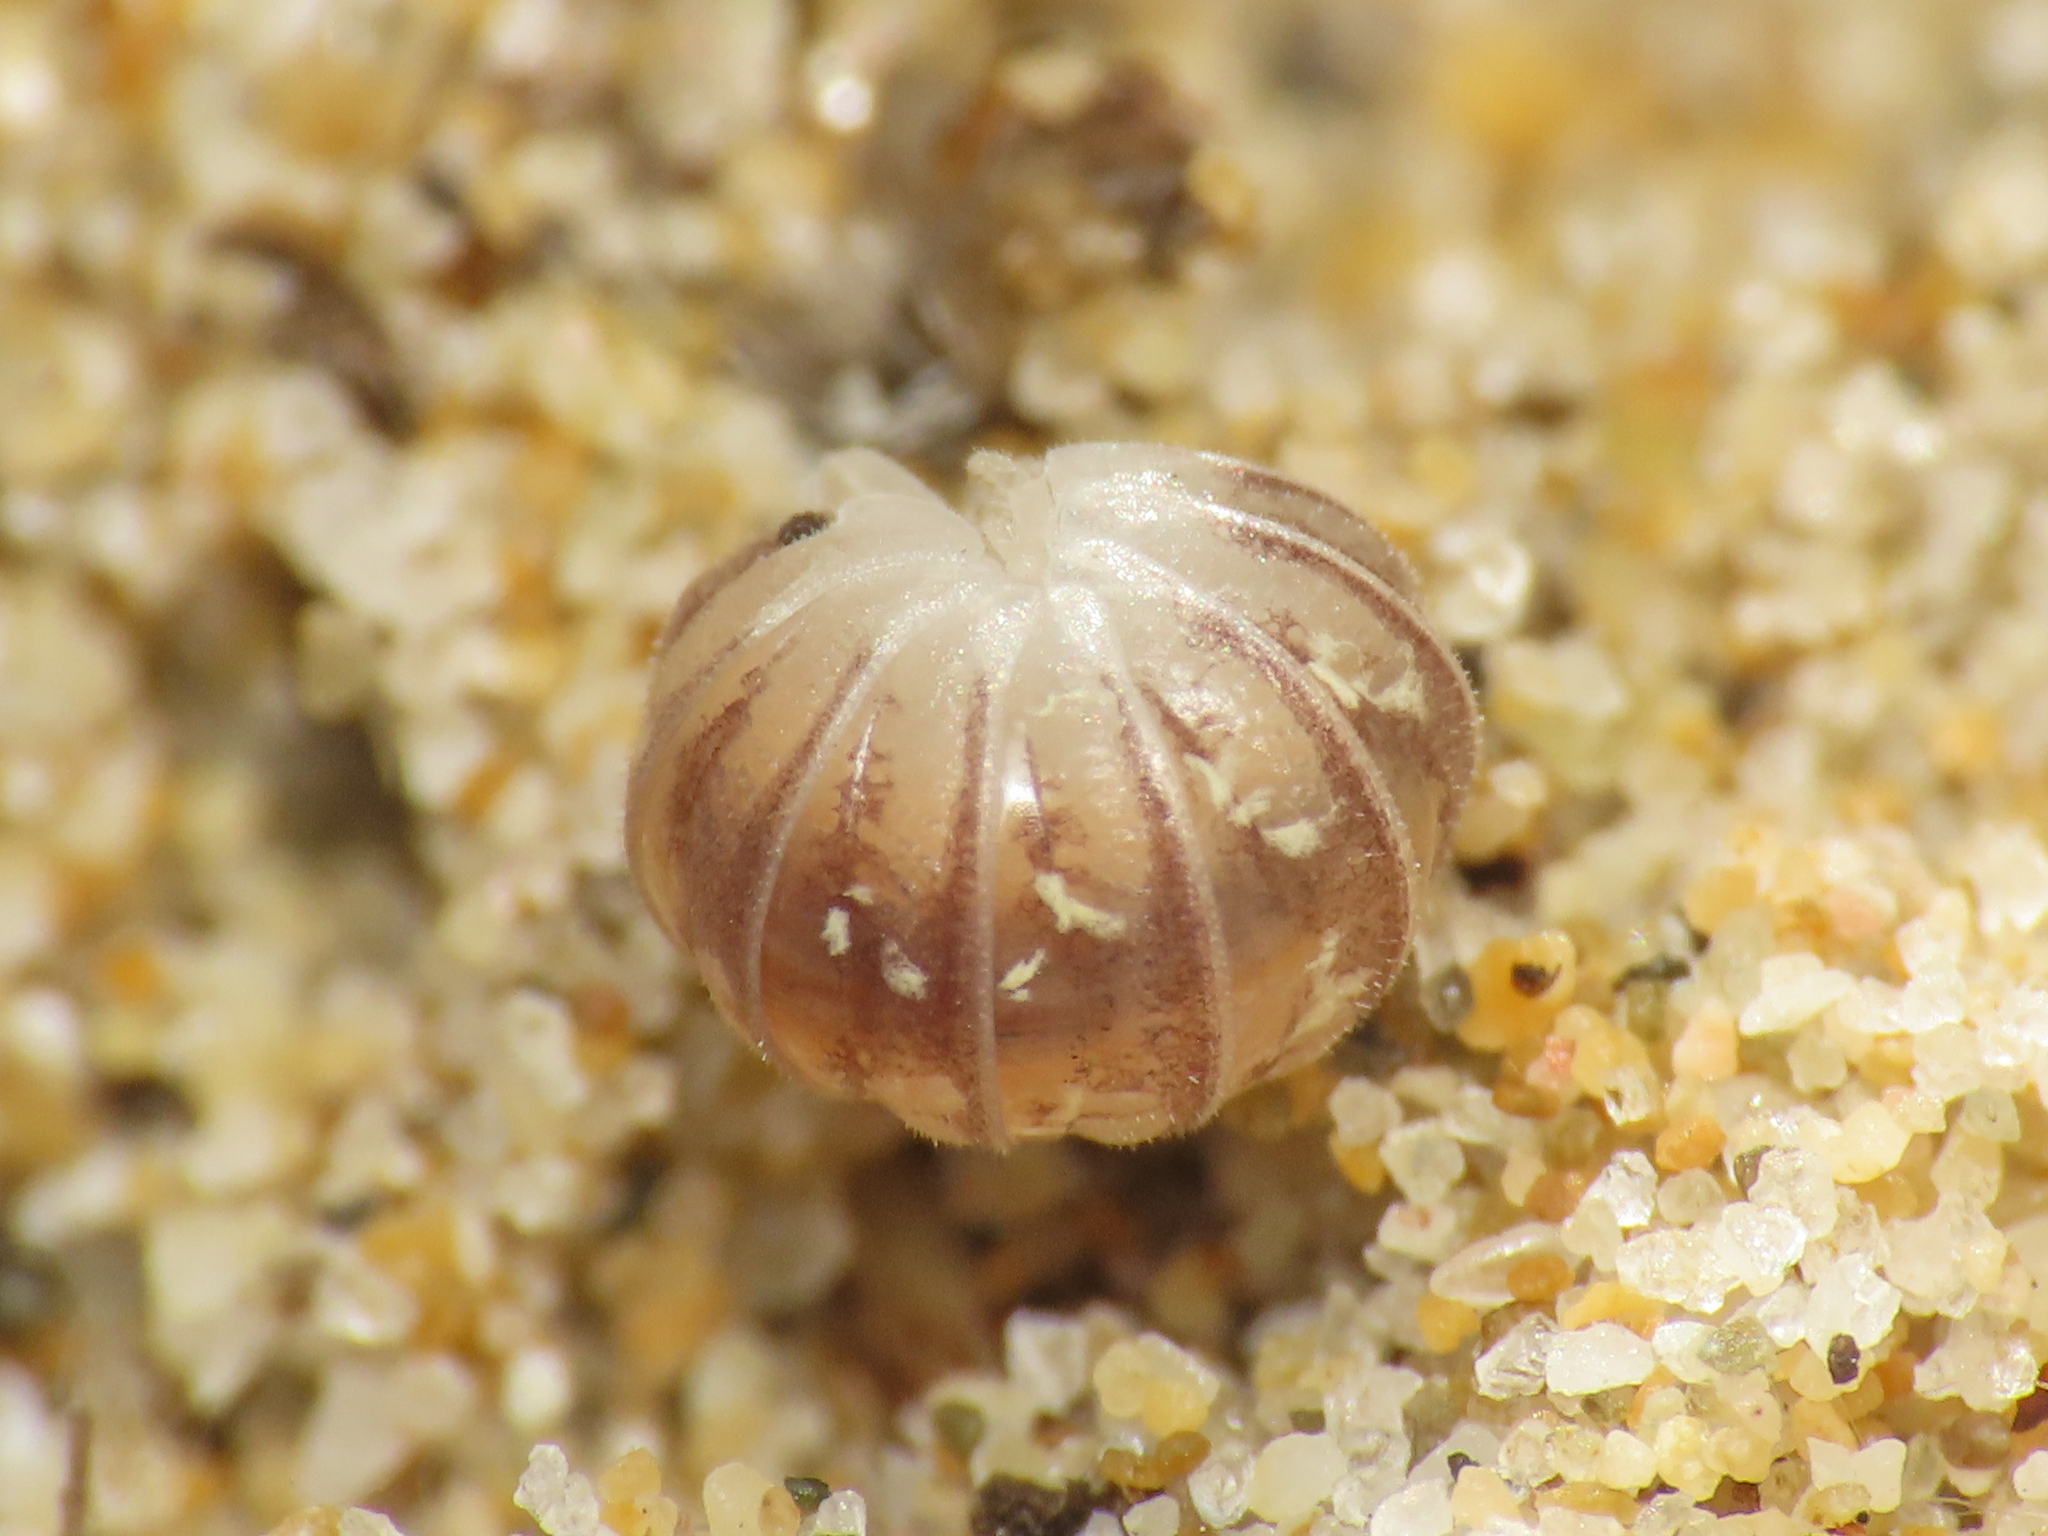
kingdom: Animalia
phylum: Arthropoda
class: Malacostraca
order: Isopoda
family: Armadillidiidae
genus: Armadillidium
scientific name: Armadillidium album
